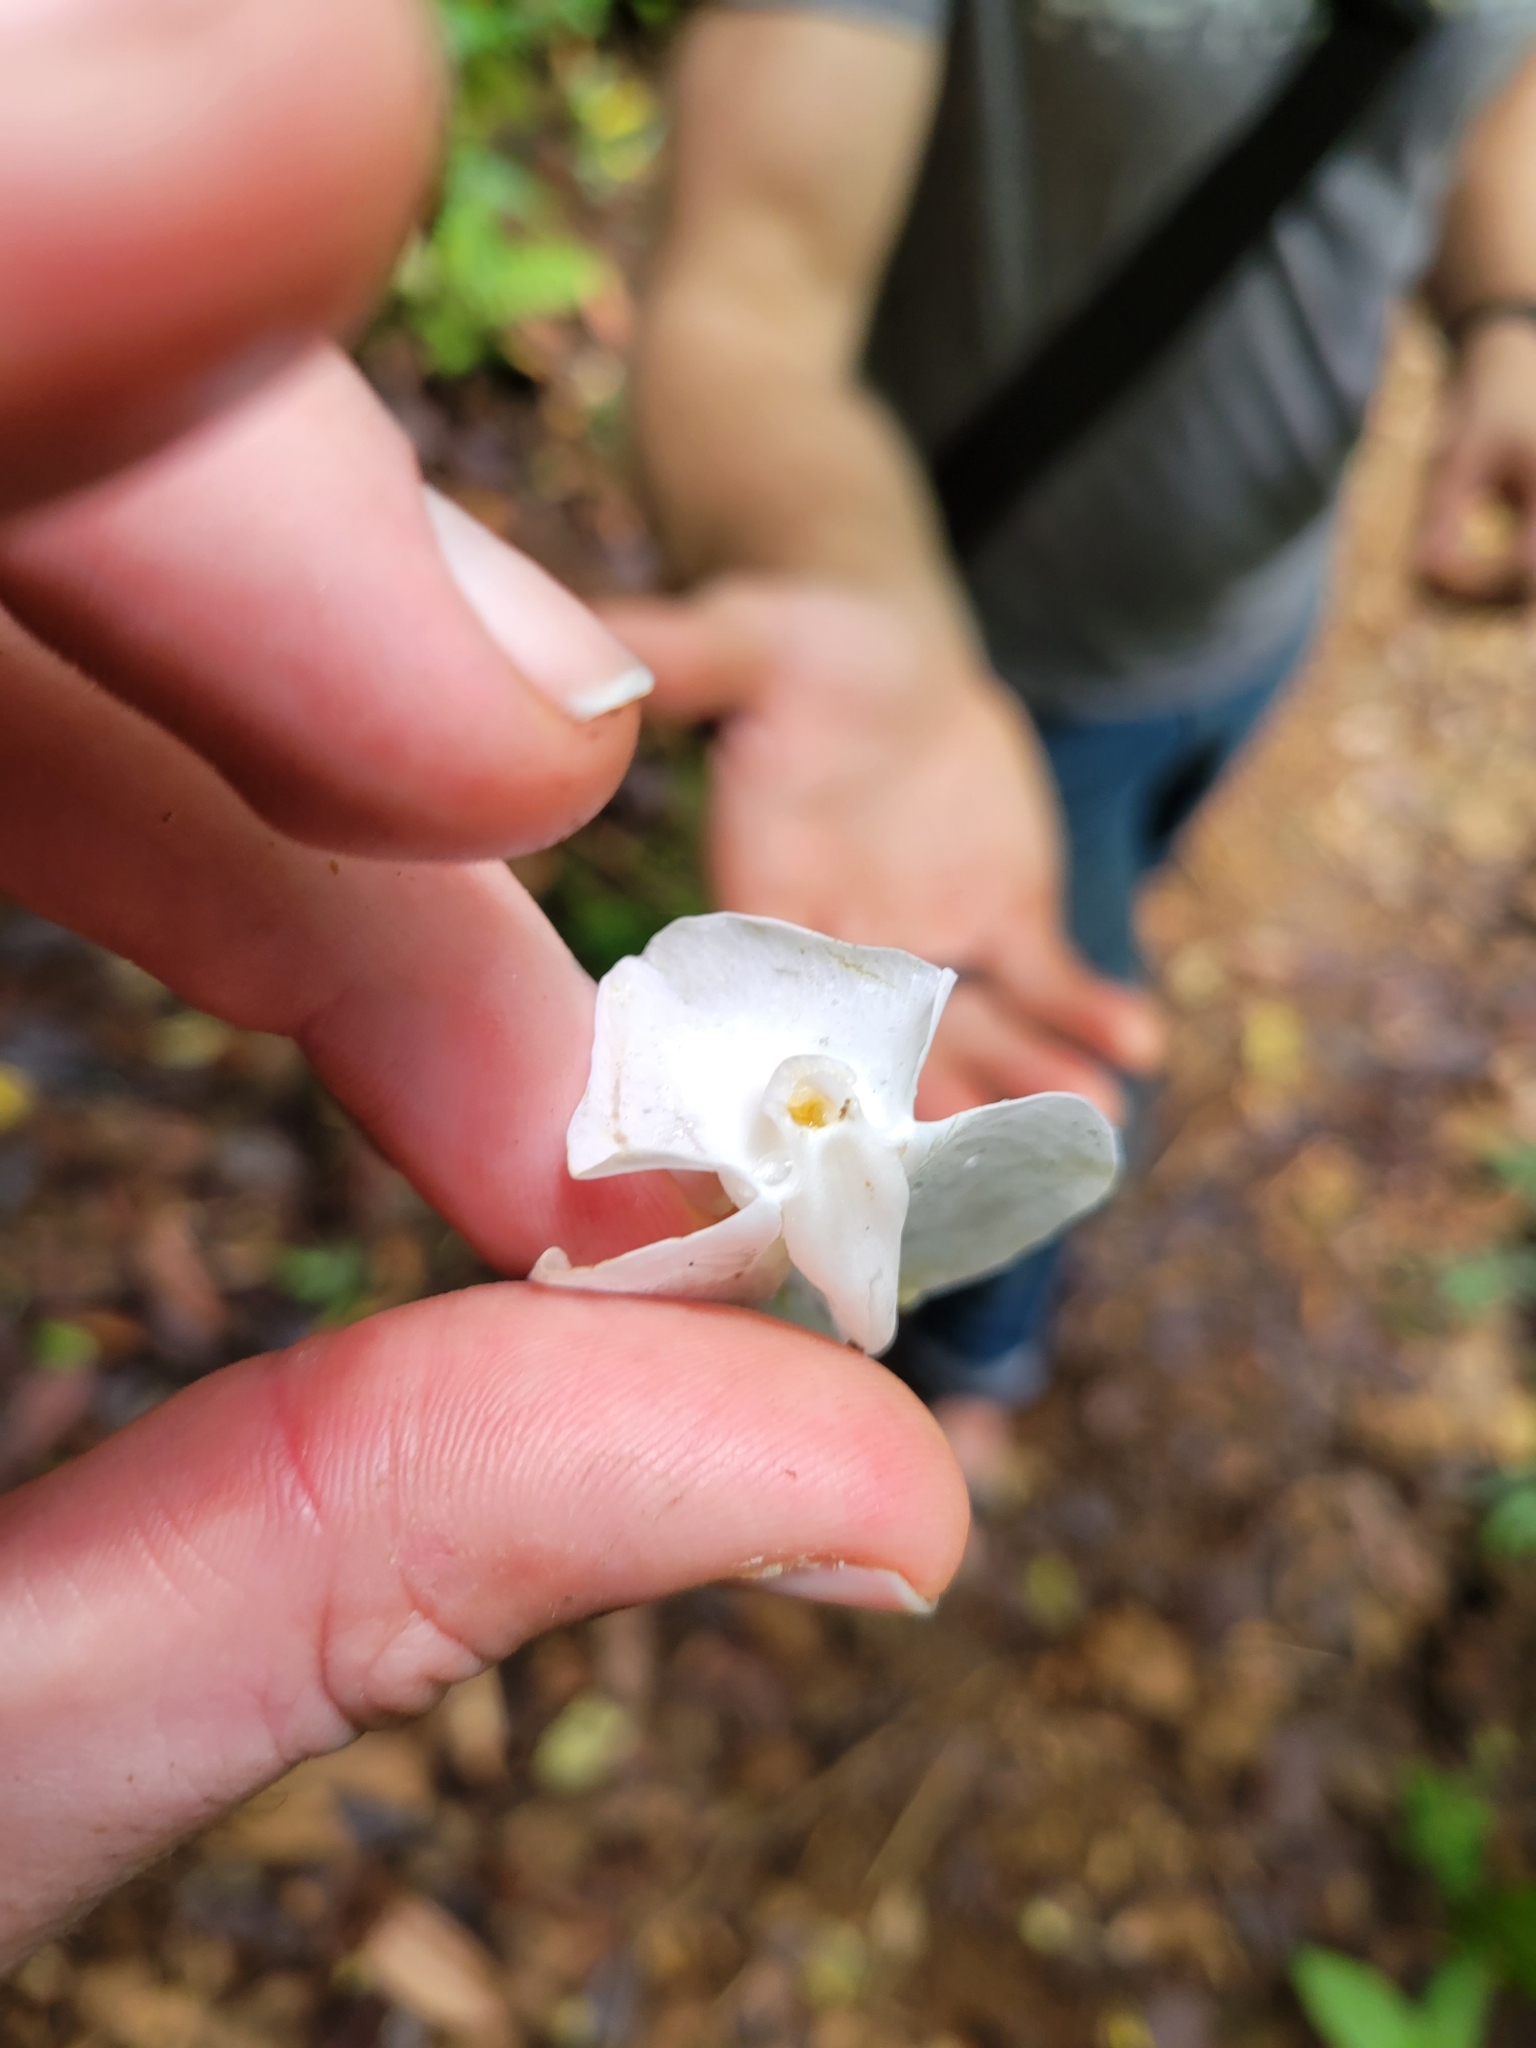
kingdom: Plantae
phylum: Tracheophyta
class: Magnoliopsida
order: Lamiales
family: Lentibulariaceae
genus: Utricularia
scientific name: Utricularia praetermissa
